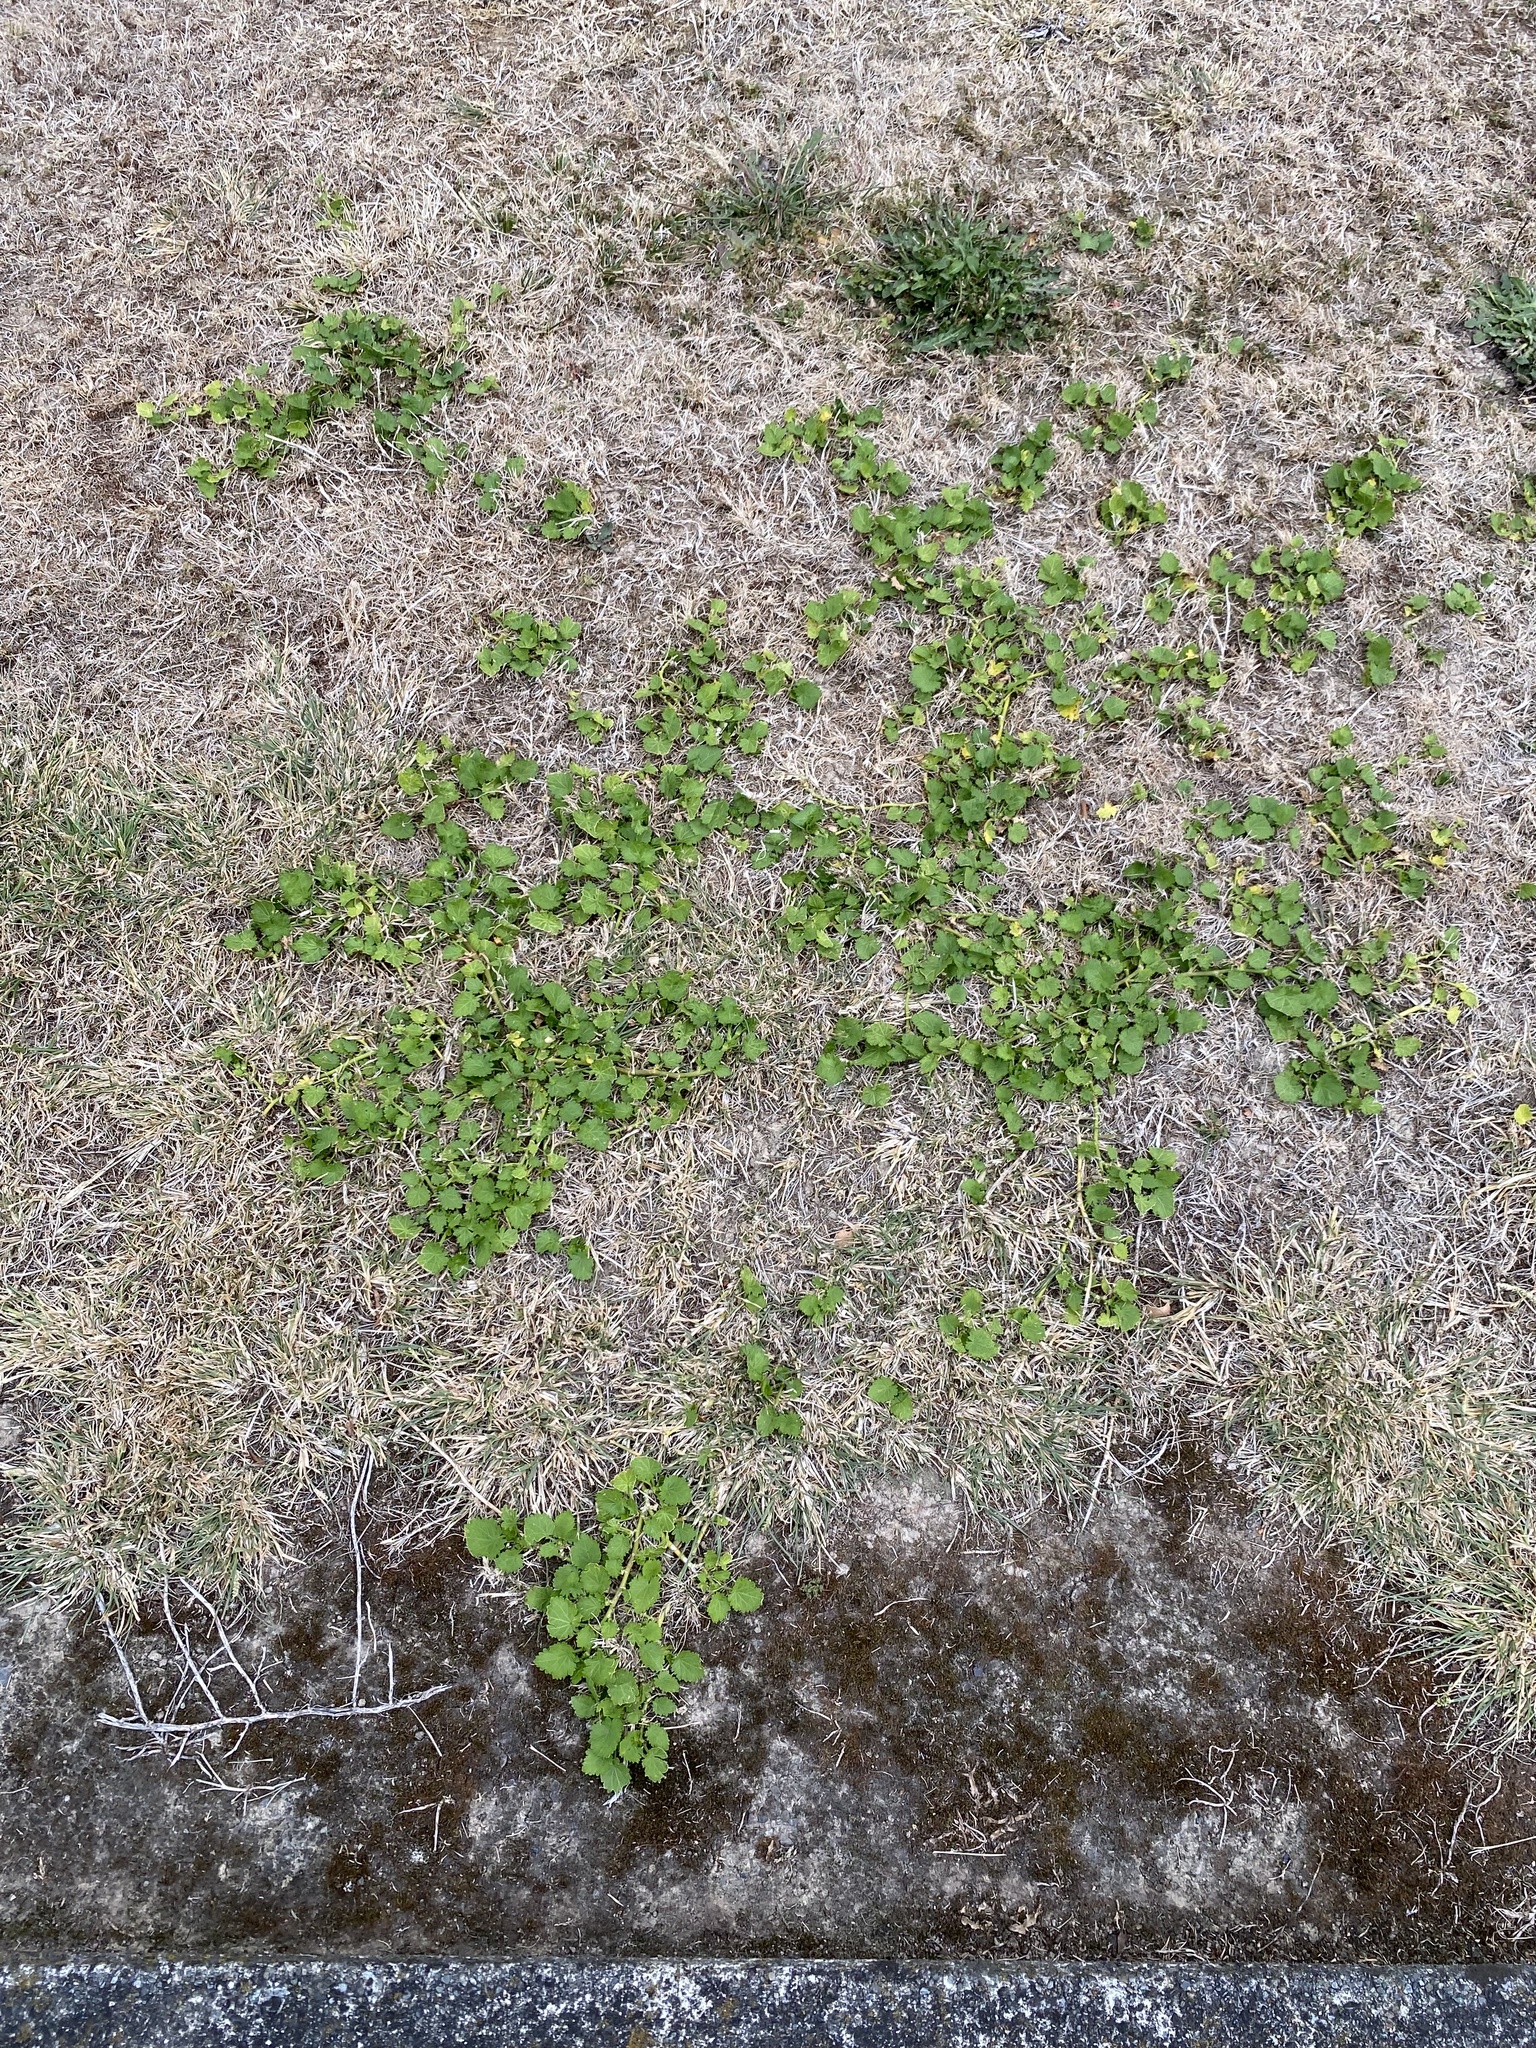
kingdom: Plantae
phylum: Tracheophyta
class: Magnoliopsida
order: Malvales
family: Malvaceae
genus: Modiola
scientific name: Modiola caroliniana
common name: Carolina bristlemallow
